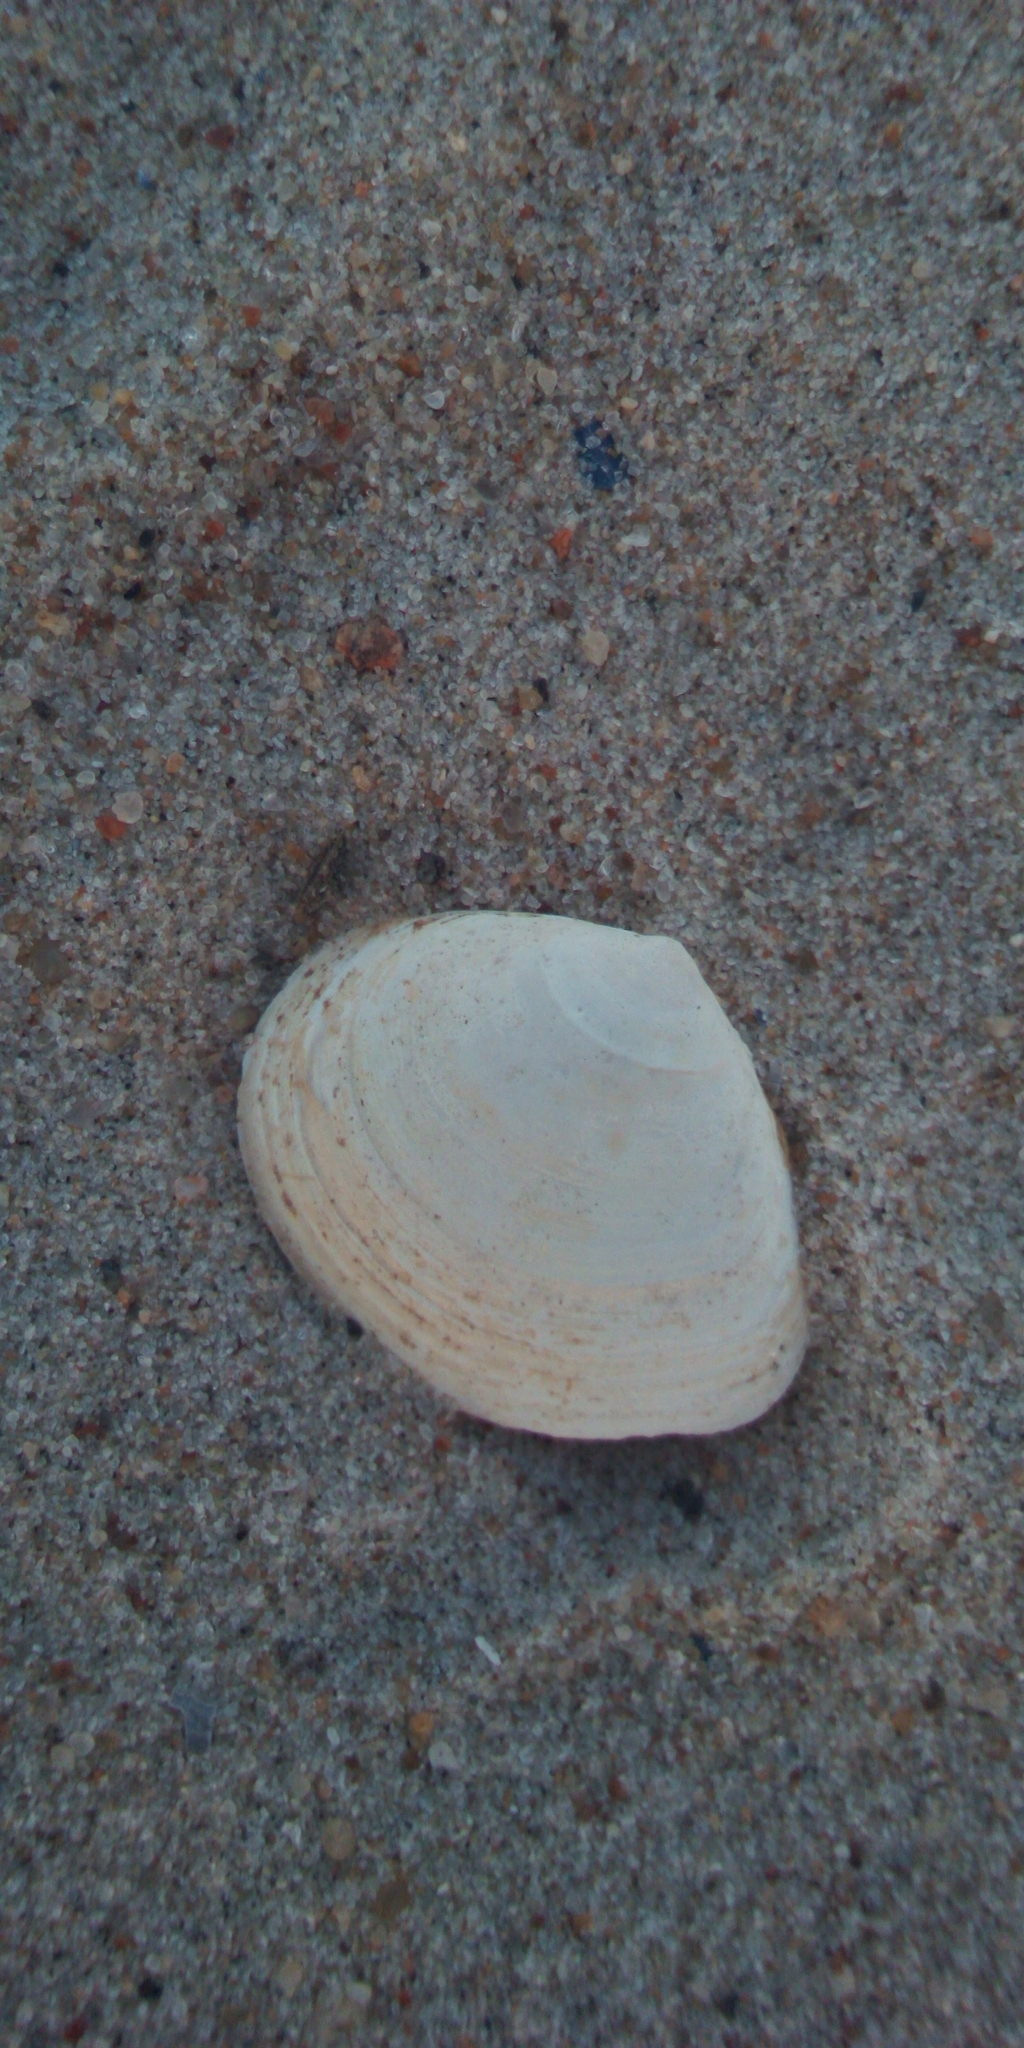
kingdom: Animalia
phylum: Mollusca
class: Bivalvia
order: Cardiida
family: Tellinidae
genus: Macoma
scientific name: Macoma balthica
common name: Baltic tellin
